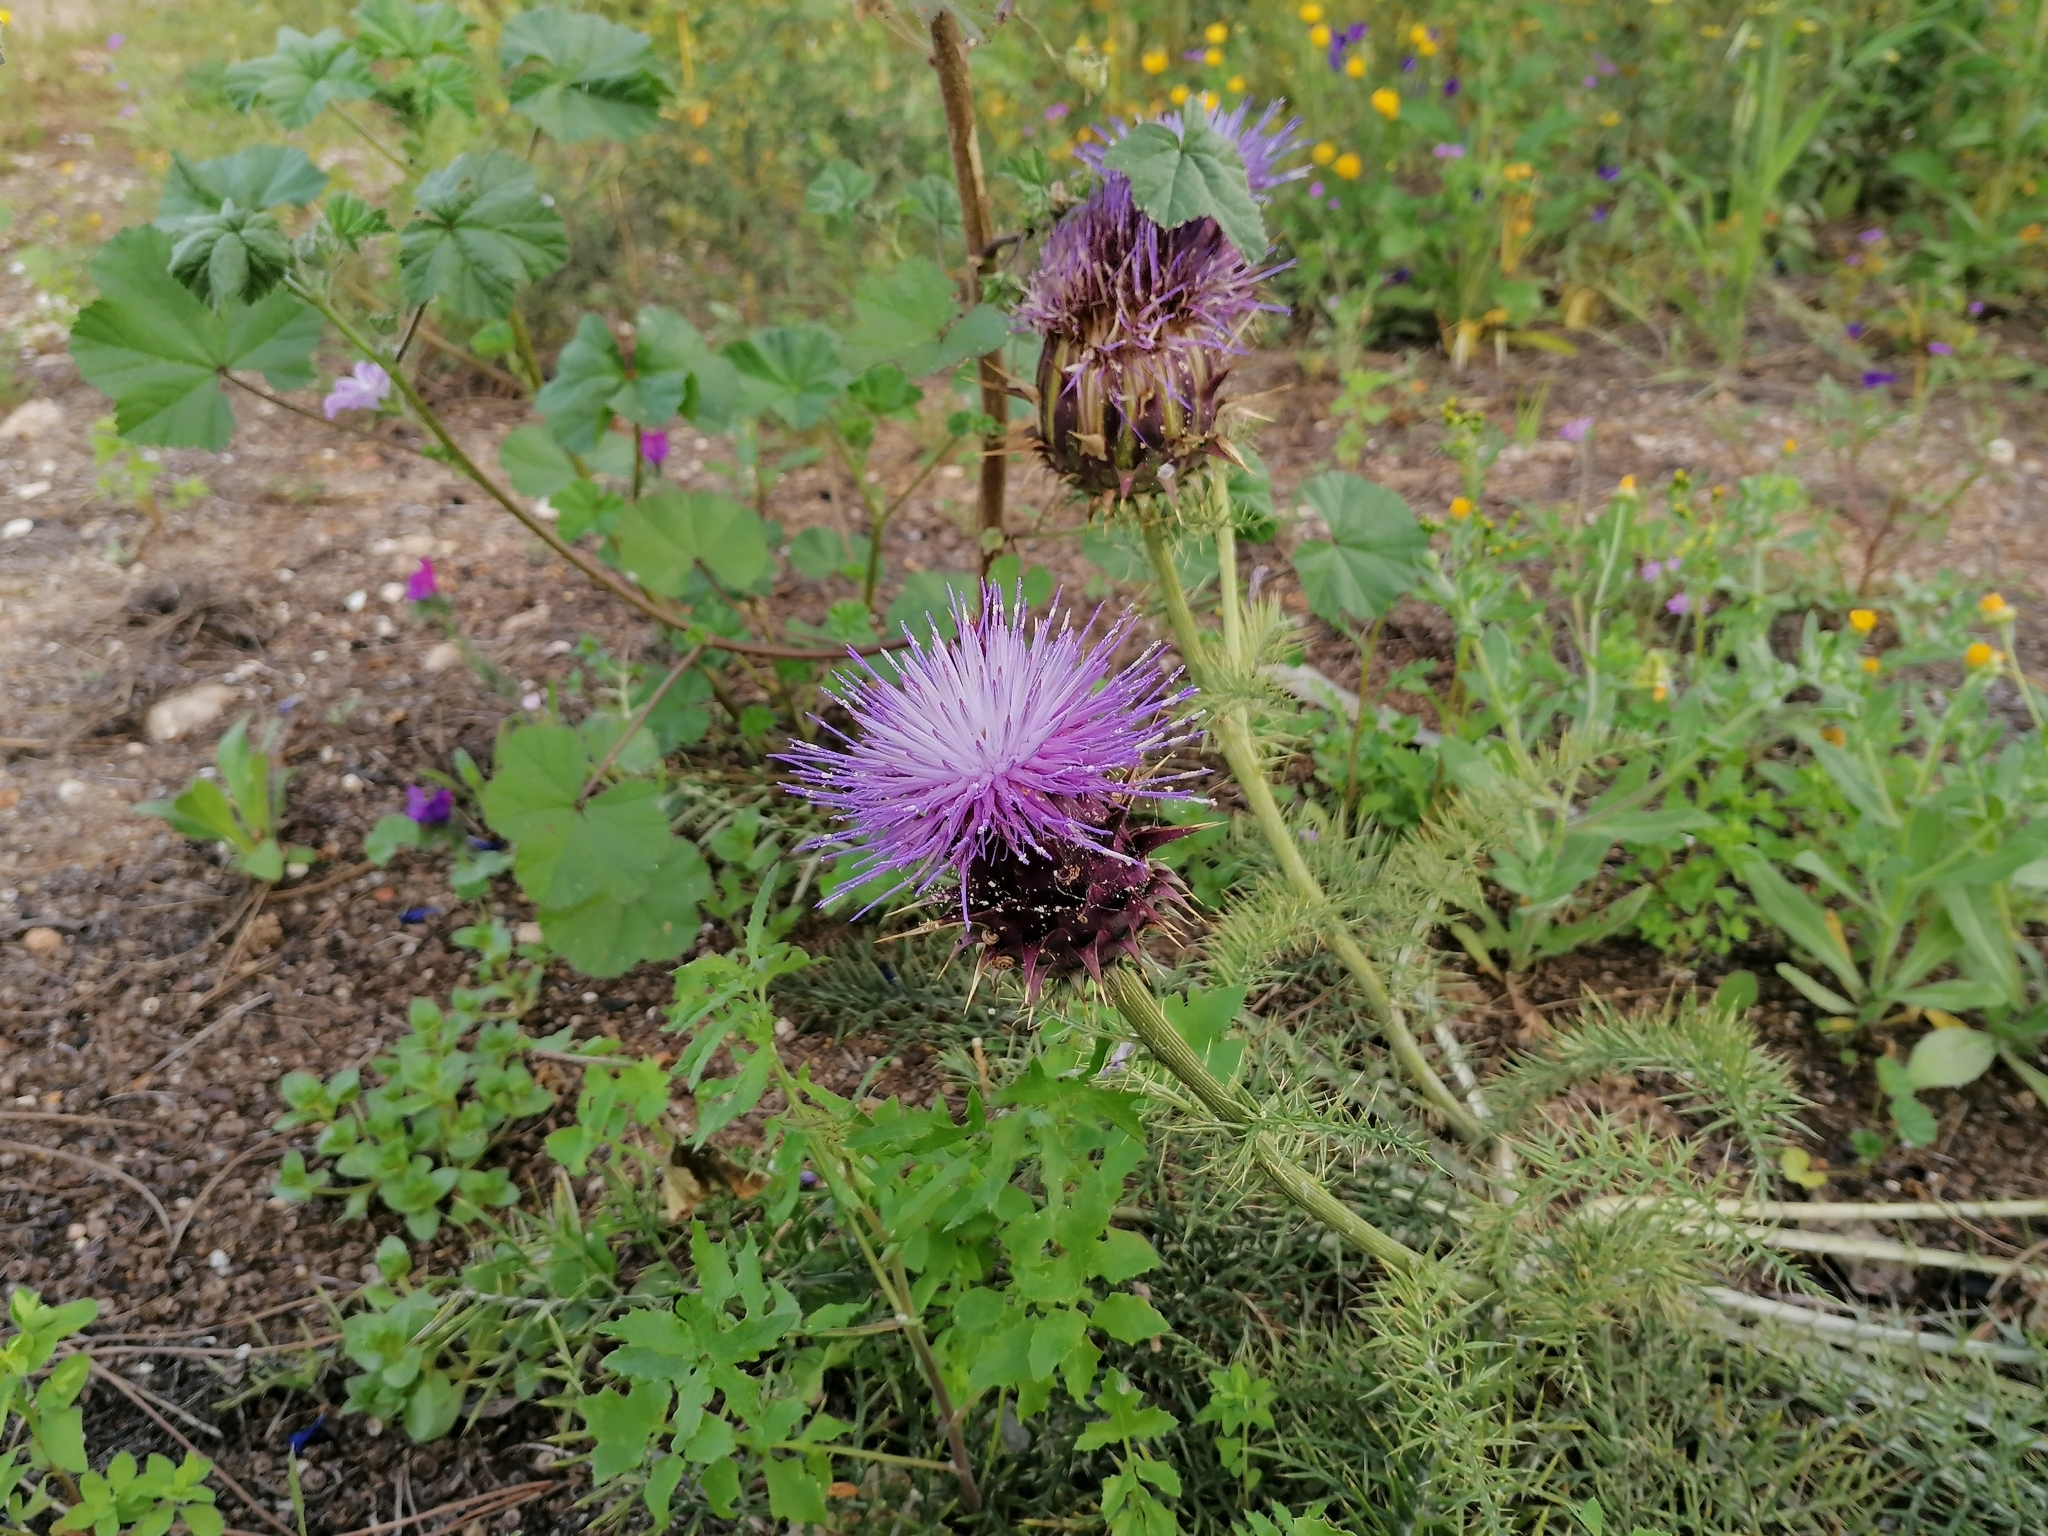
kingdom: Plantae
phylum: Tracheophyta
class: Magnoliopsida
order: Asterales
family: Asteraceae
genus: Cynara
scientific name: Cynara humilis
